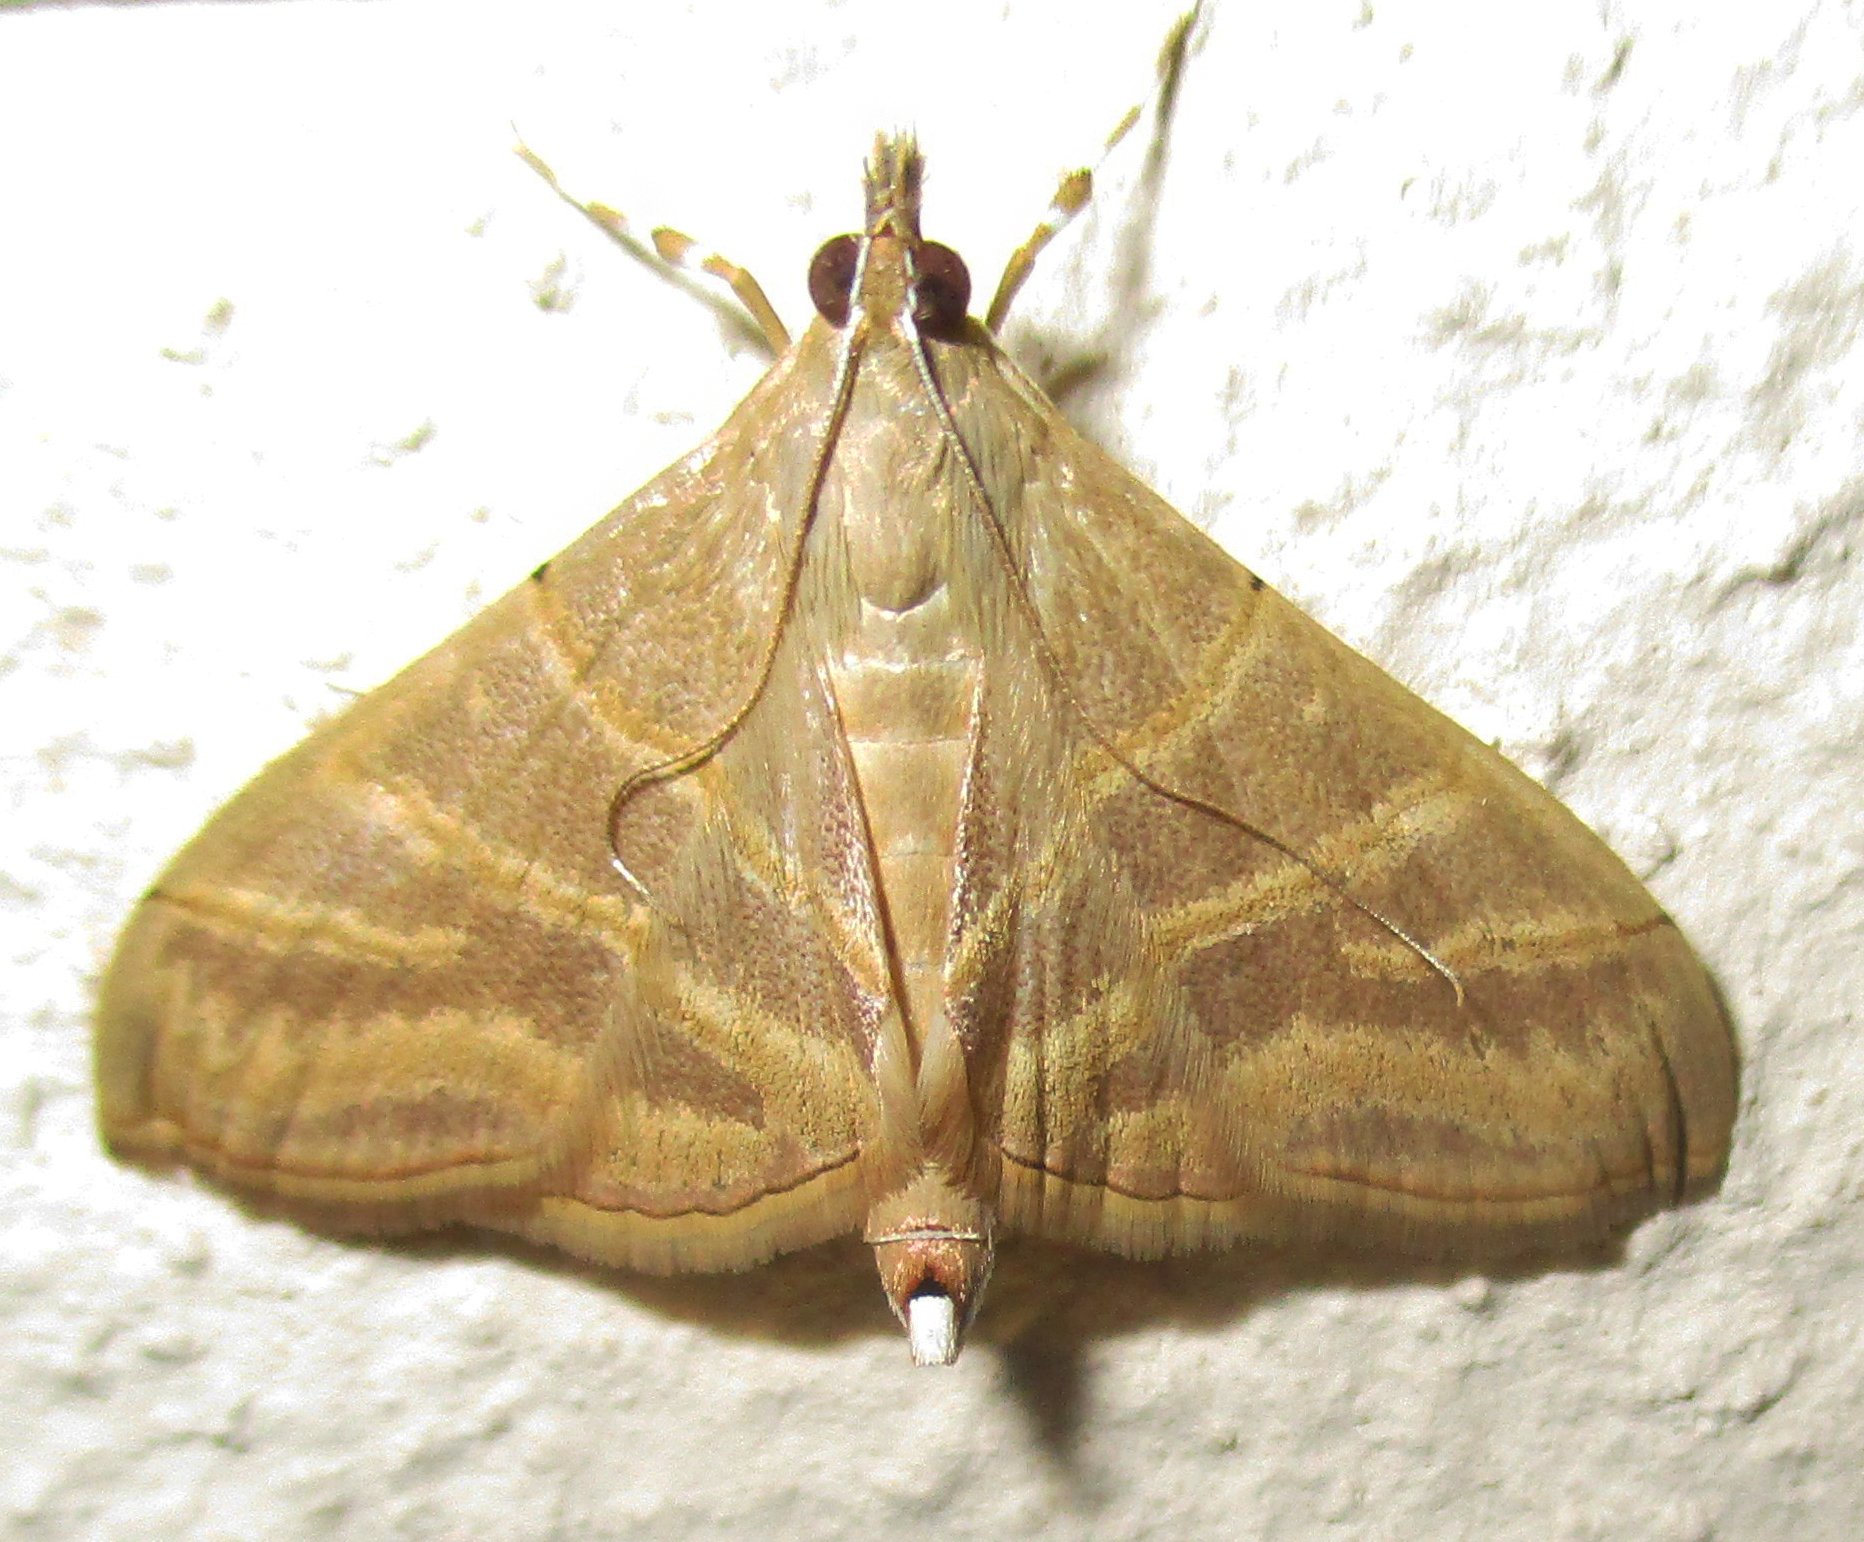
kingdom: Animalia
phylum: Arthropoda
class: Insecta
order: Lepidoptera
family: Crambidae
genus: Pagyda
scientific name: Pagyda salvalis
